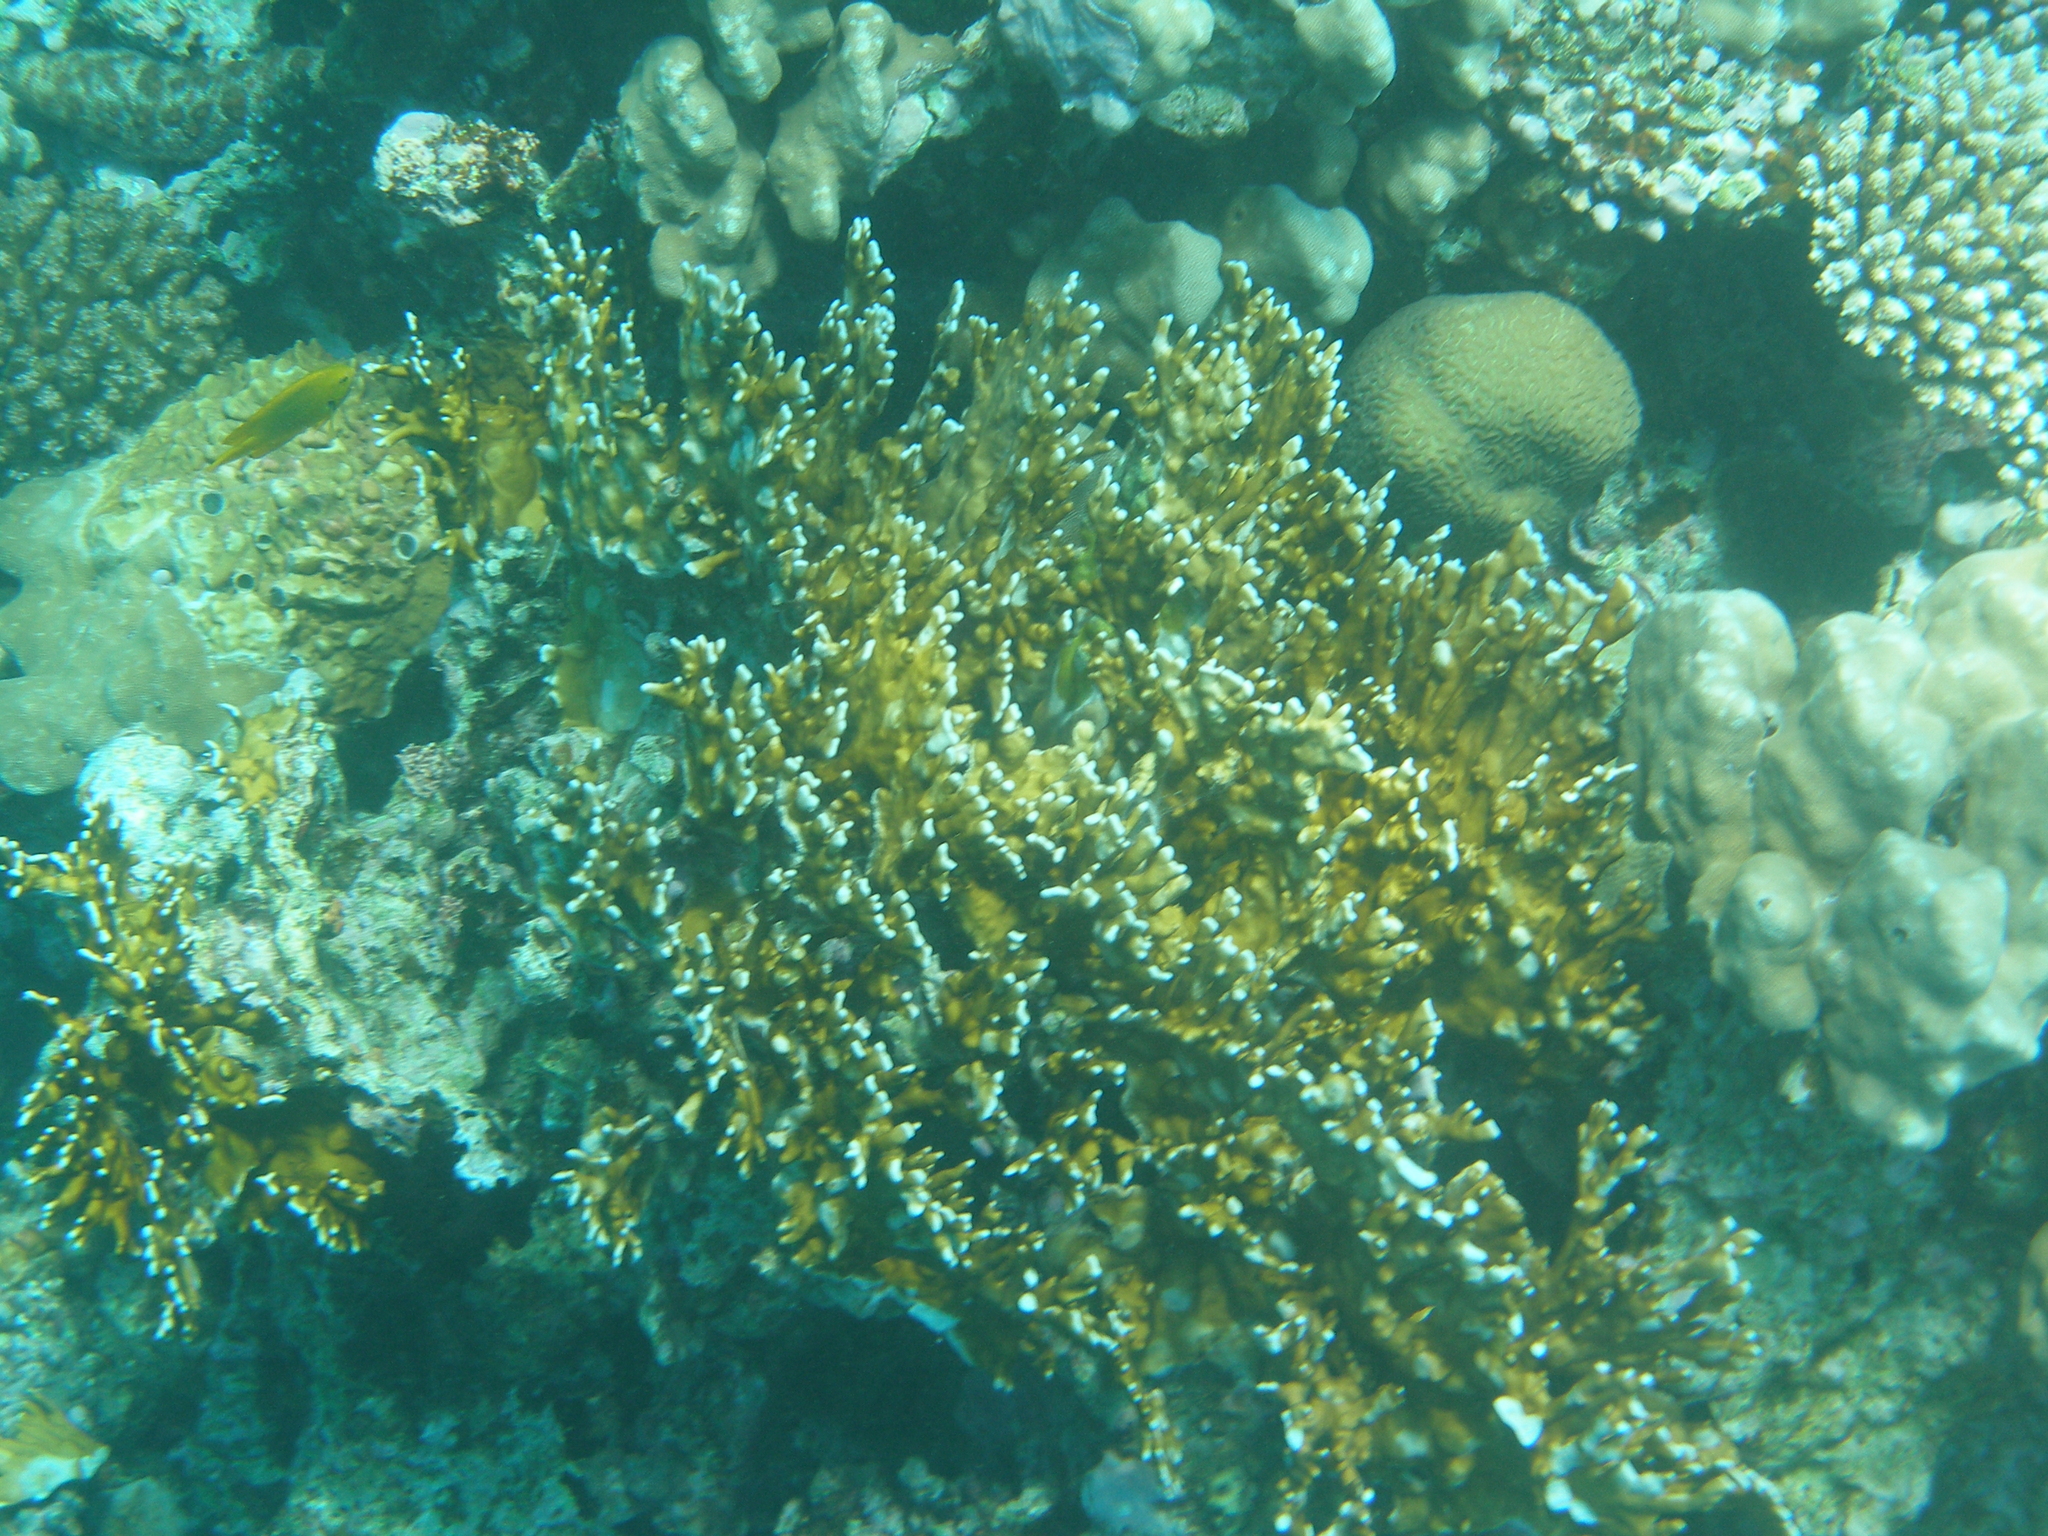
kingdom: Animalia
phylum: Cnidaria
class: Hydrozoa
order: Anthoathecata
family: Milleporidae
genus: Millepora
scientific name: Millepora dichotoma
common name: Ramified fire coral
